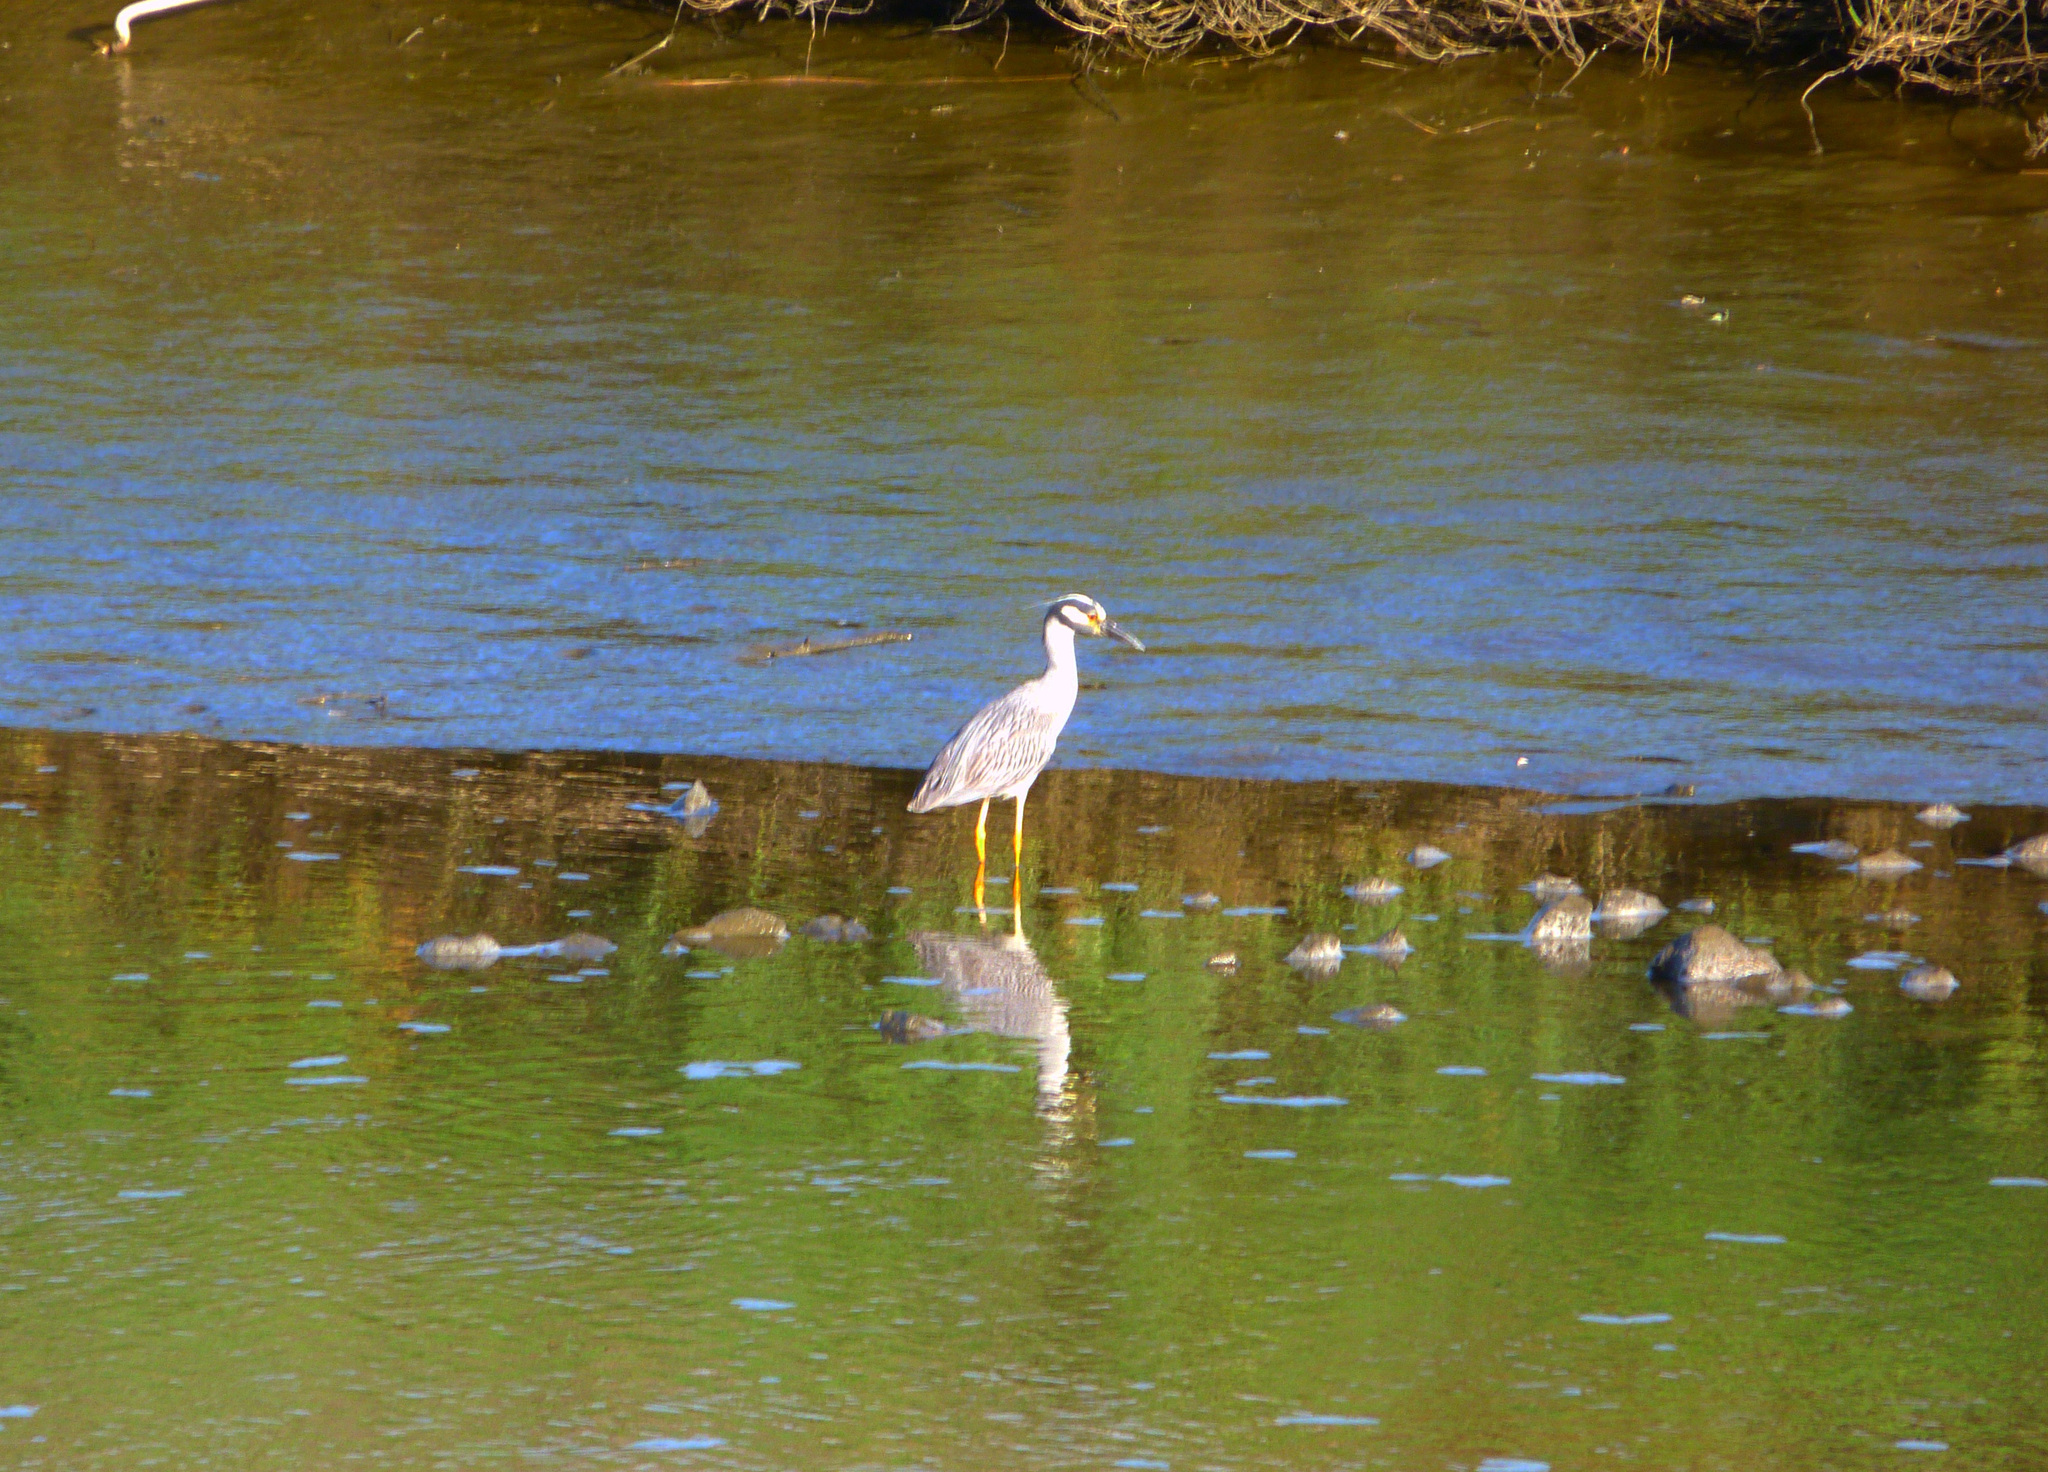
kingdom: Animalia
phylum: Chordata
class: Aves
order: Pelecaniformes
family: Ardeidae
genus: Nyctanassa
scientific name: Nyctanassa violacea
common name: Yellow-crowned night heron
